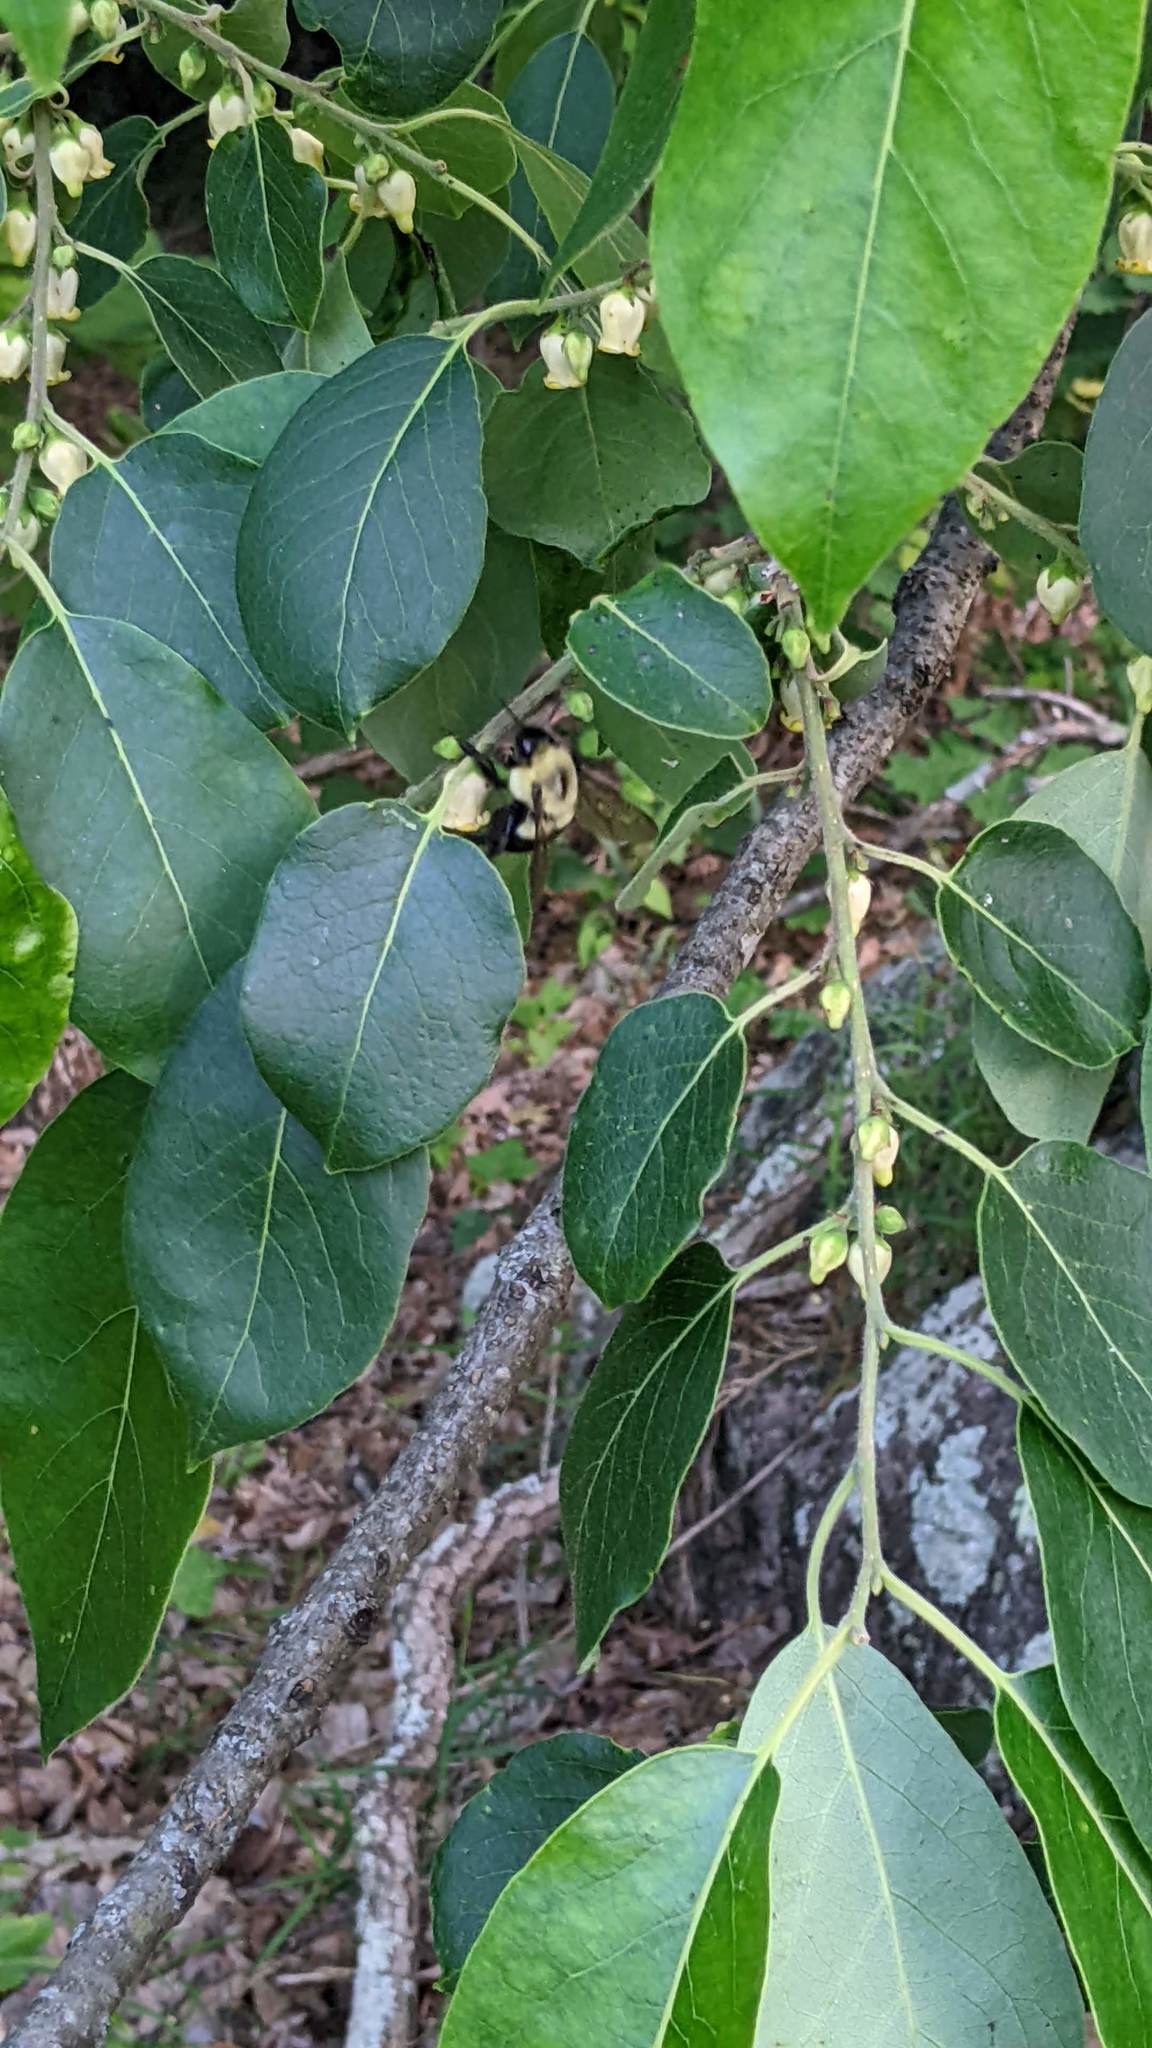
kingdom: Animalia
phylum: Arthropoda
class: Insecta
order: Hymenoptera
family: Apidae
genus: Bombus
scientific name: Bombus impatiens
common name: Common eastern bumble bee
